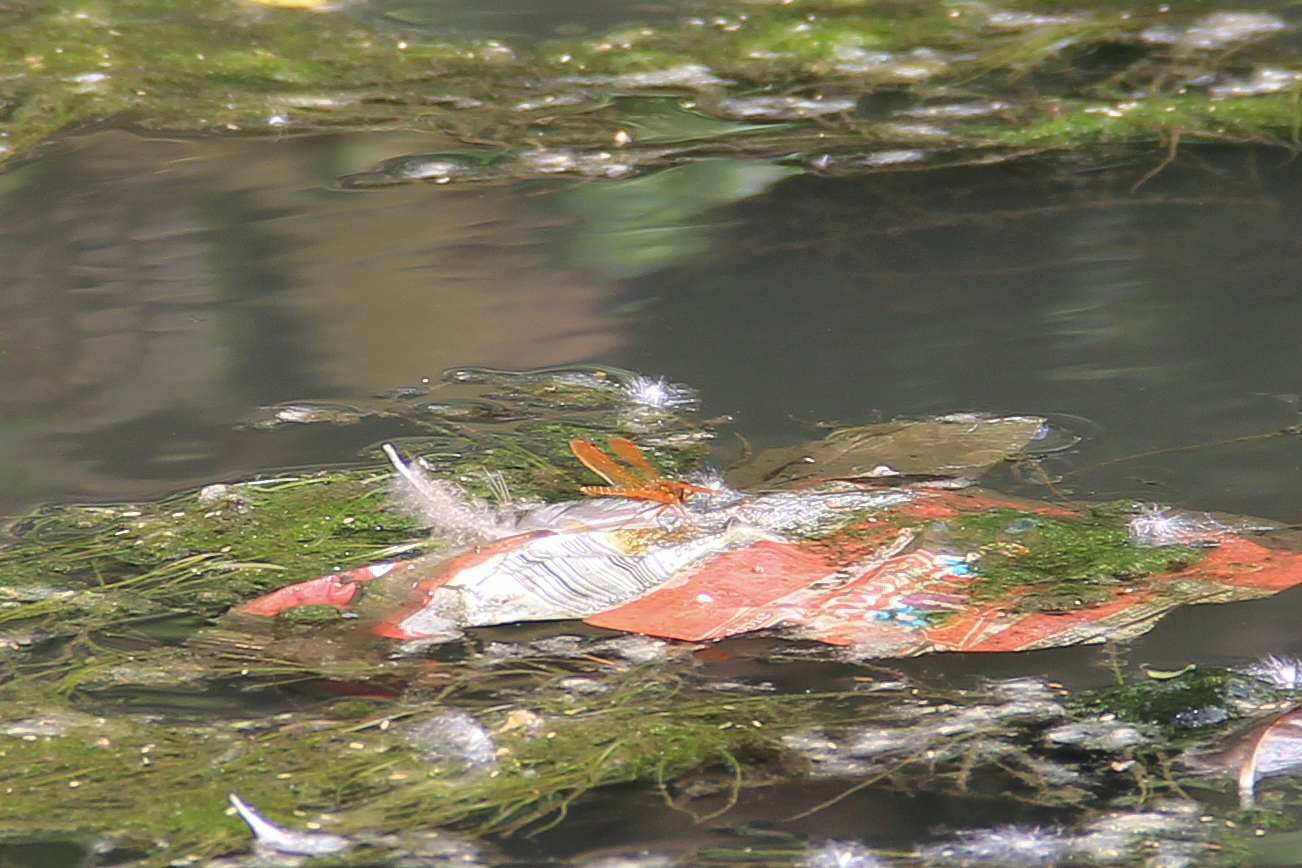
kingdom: Animalia
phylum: Arthropoda
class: Insecta
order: Odonata
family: Libellulidae
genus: Perithemis
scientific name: Perithemis tenera
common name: Eastern amberwing
